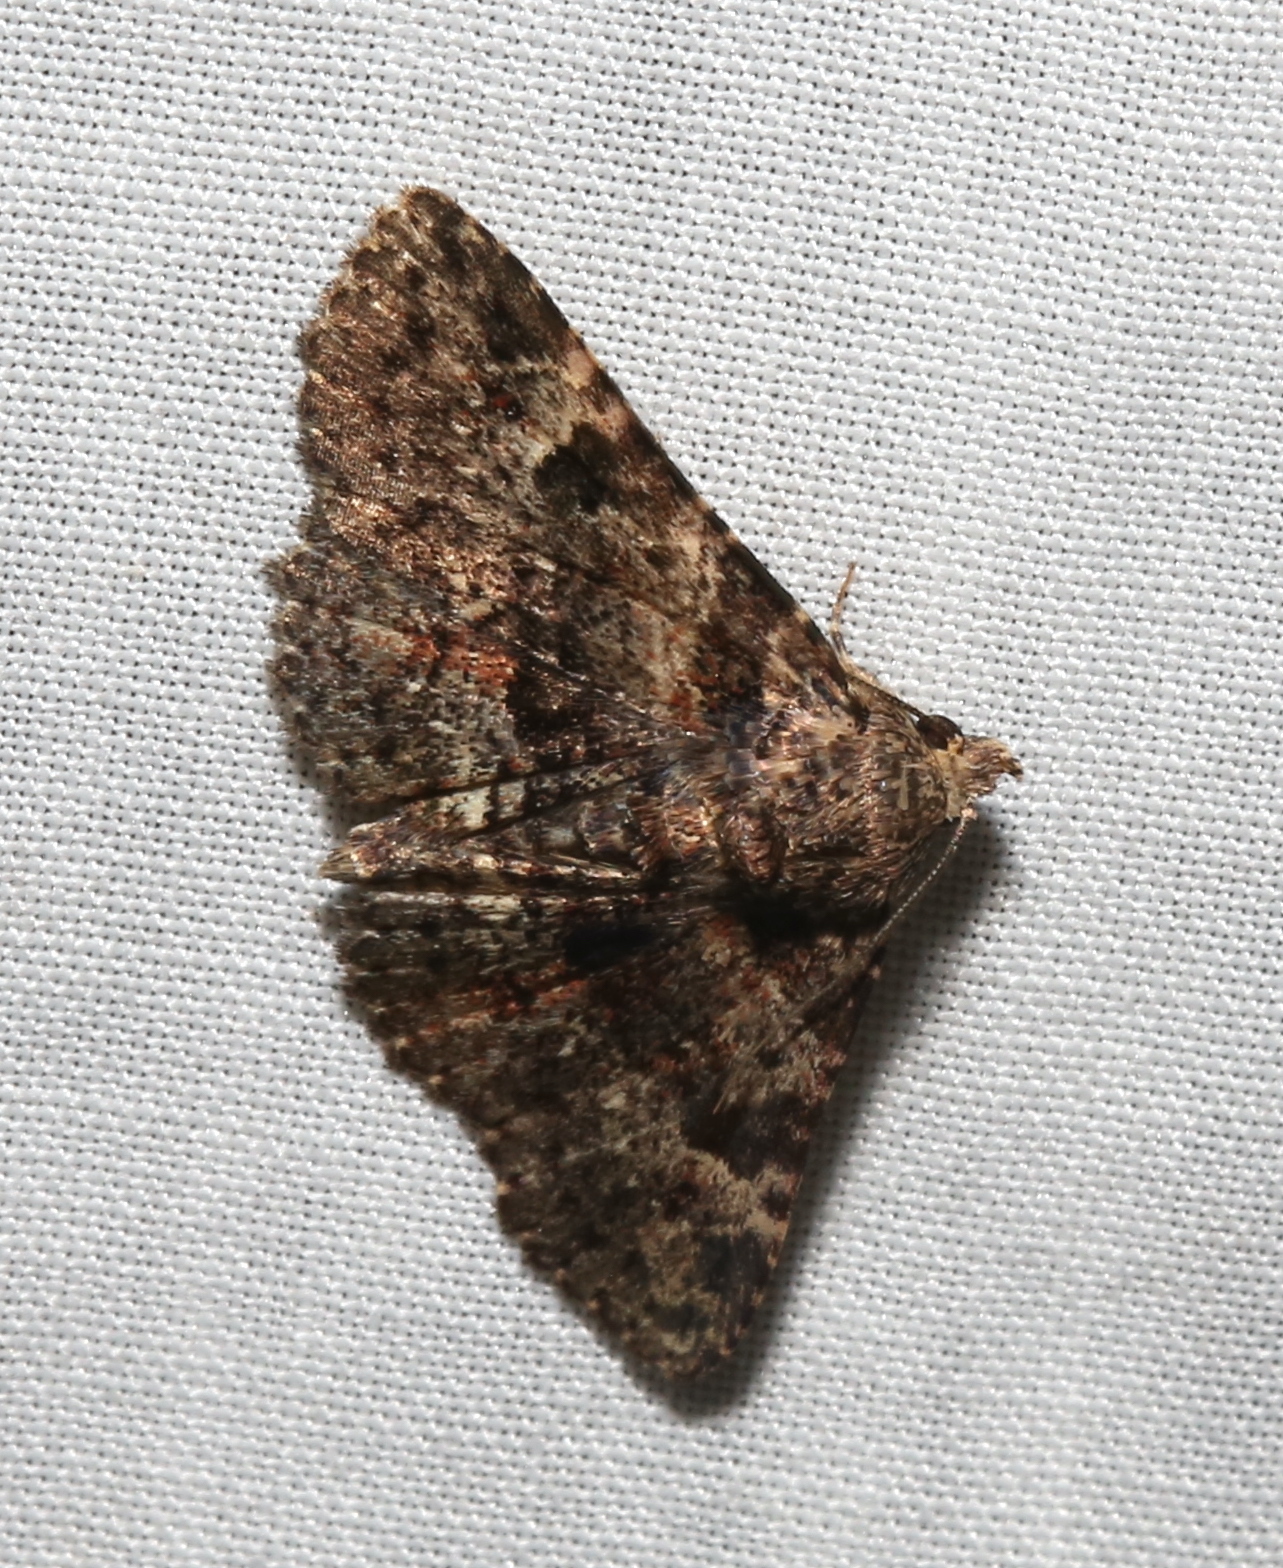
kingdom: Animalia
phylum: Arthropoda
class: Insecta
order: Lepidoptera
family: Erebidae
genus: Metalectra
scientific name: Metalectra discalis
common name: Common fungus moth
